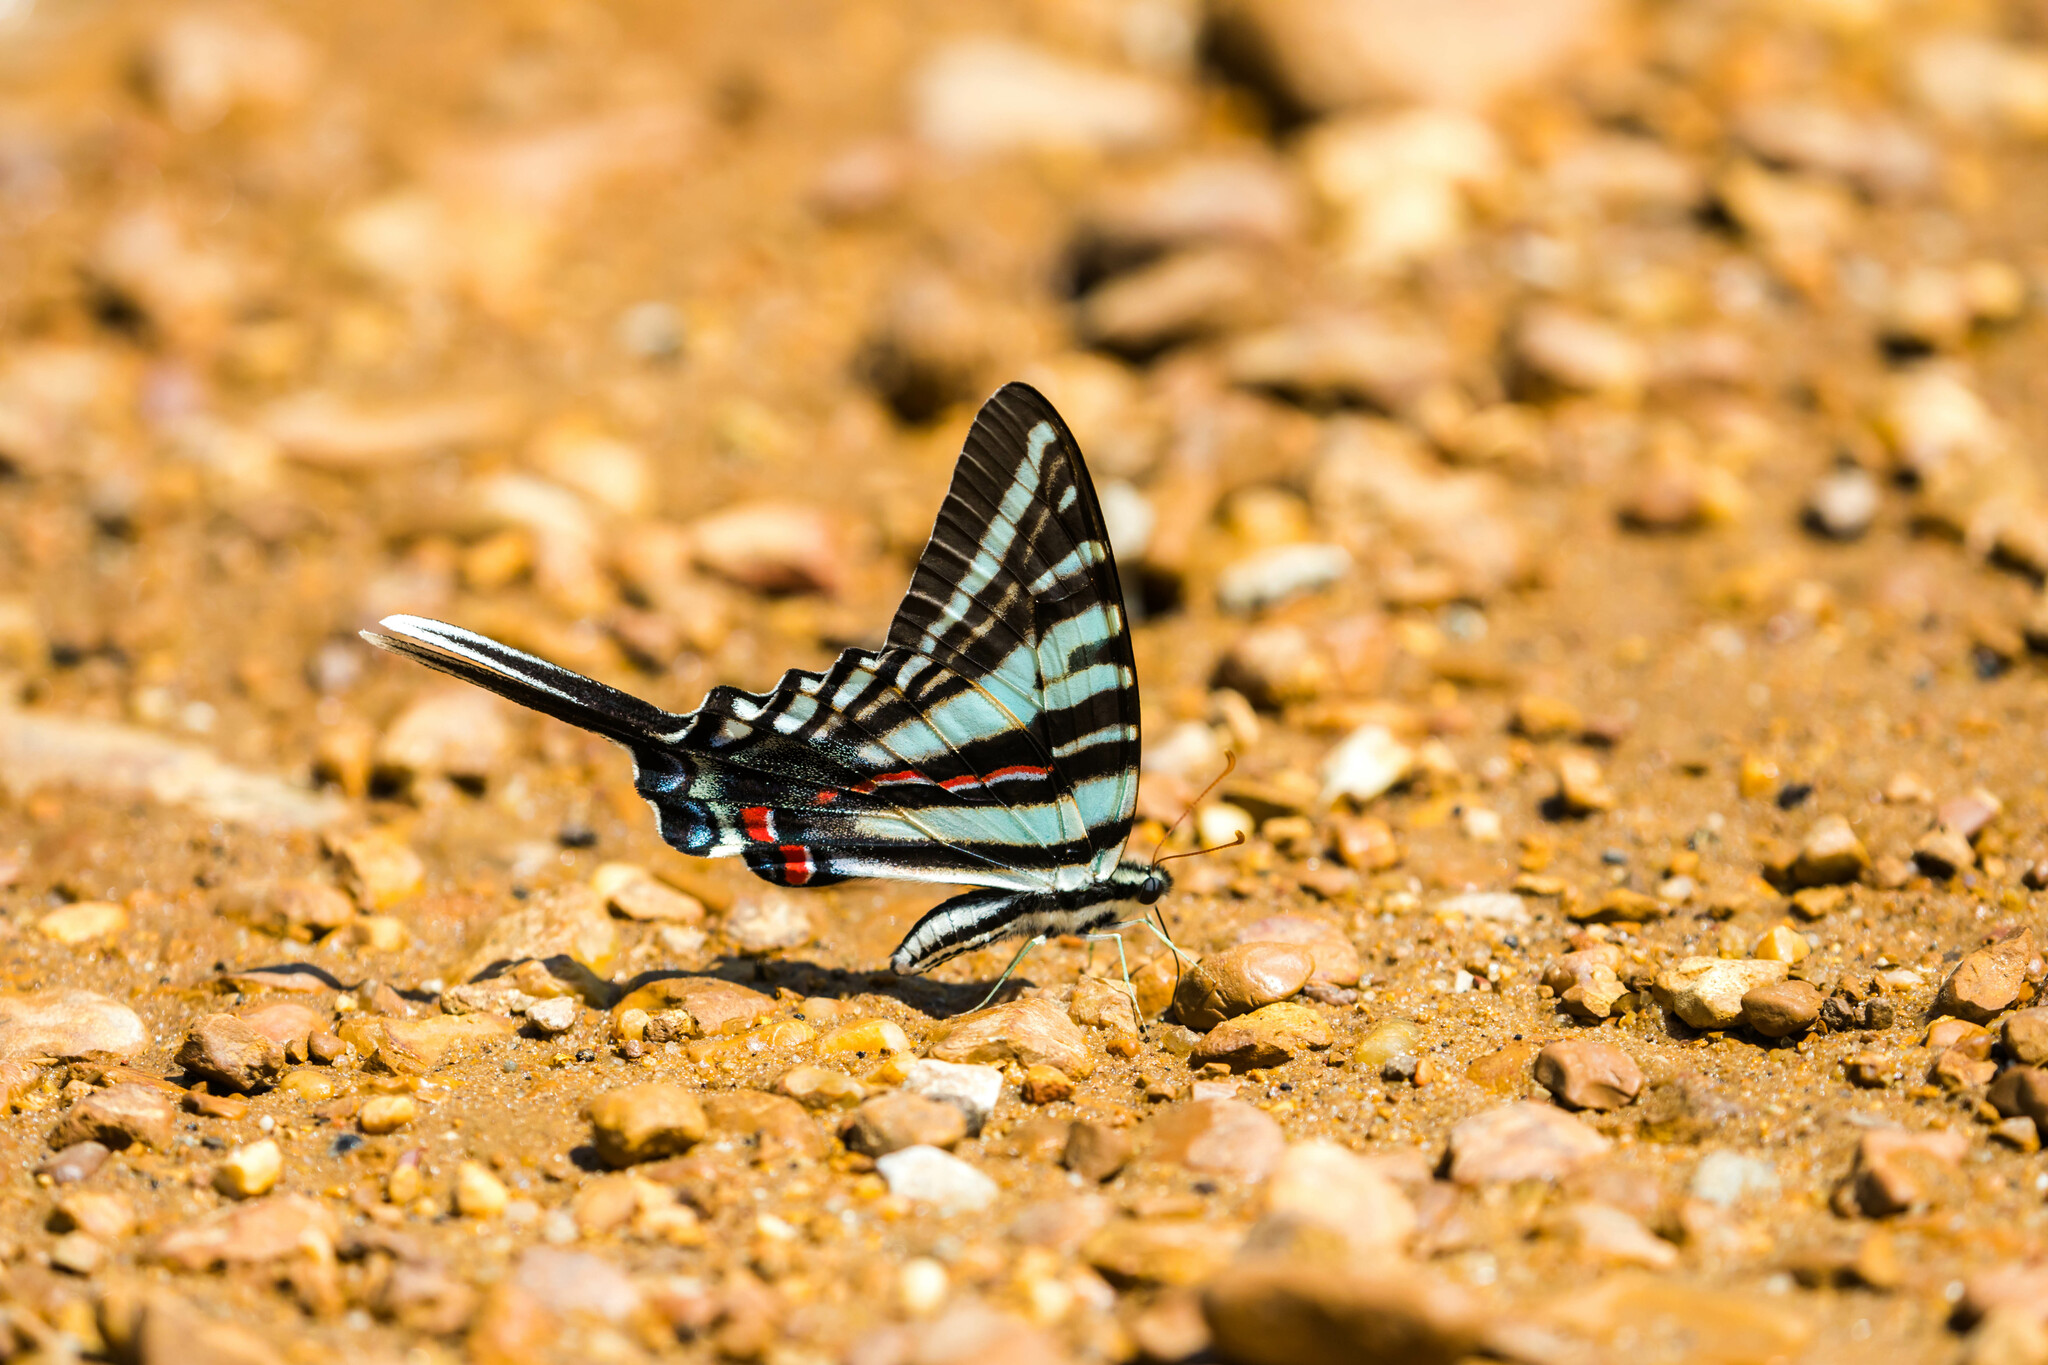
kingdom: Animalia
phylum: Arthropoda
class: Insecta
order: Lepidoptera
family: Papilionidae
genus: Protographium
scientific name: Protographium marcellus
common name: Zebra swallowtail
